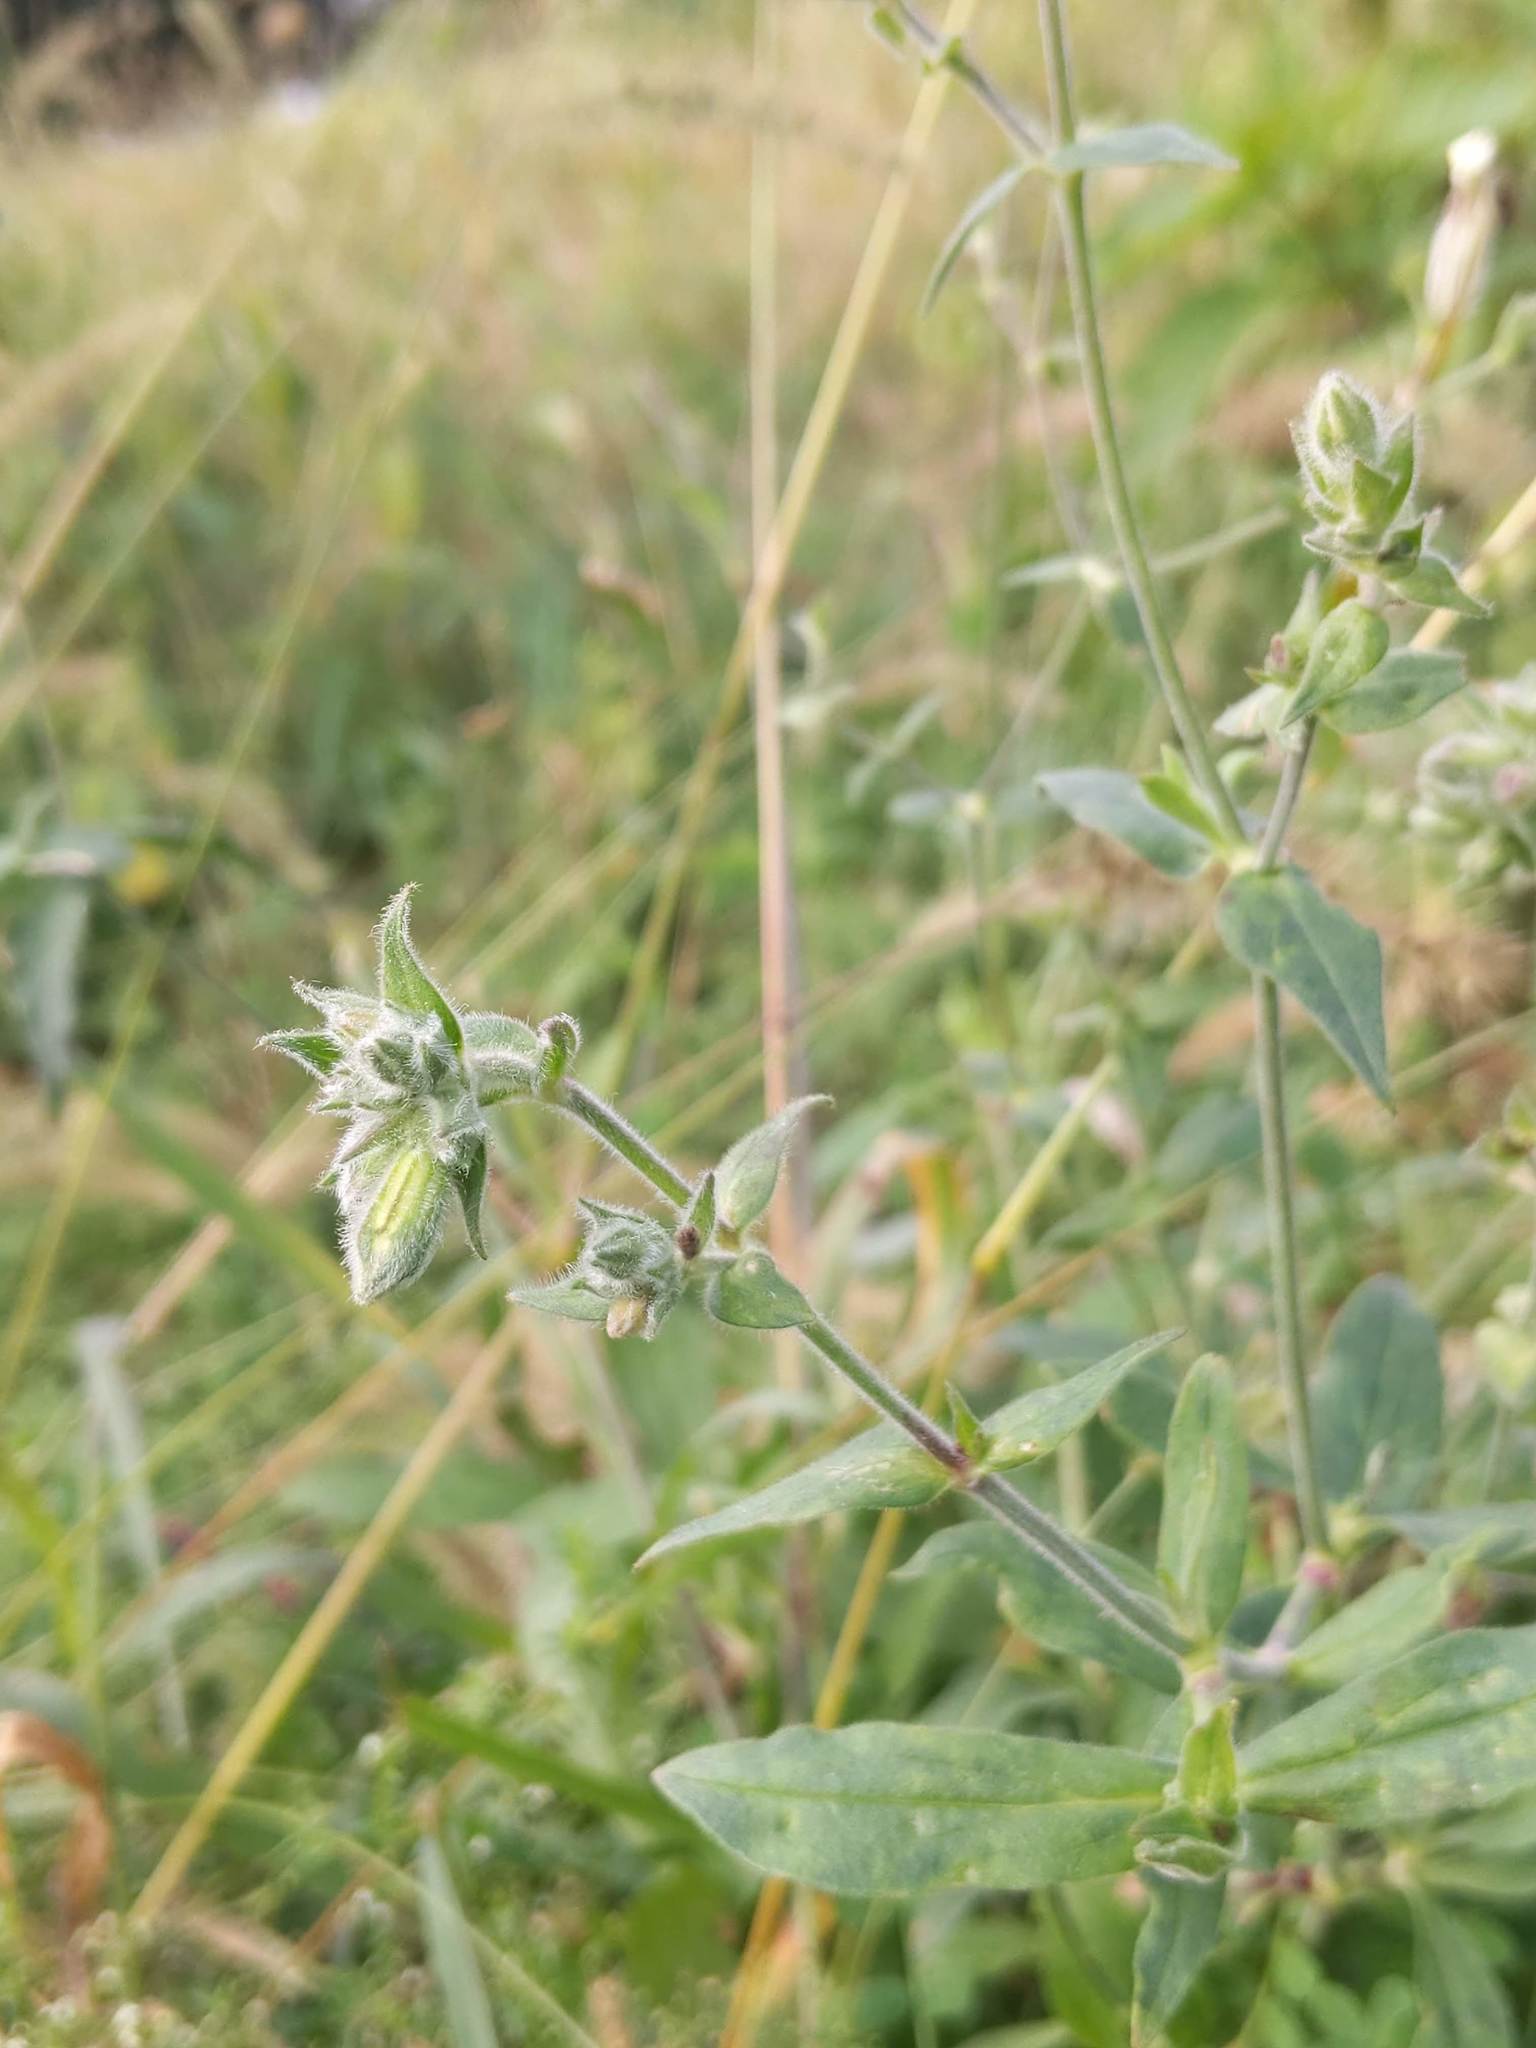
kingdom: Plantae
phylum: Tracheophyta
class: Magnoliopsida
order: Caryophyllales
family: Caryophyllaceae
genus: Silene
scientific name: Silene latifolia
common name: White campion
